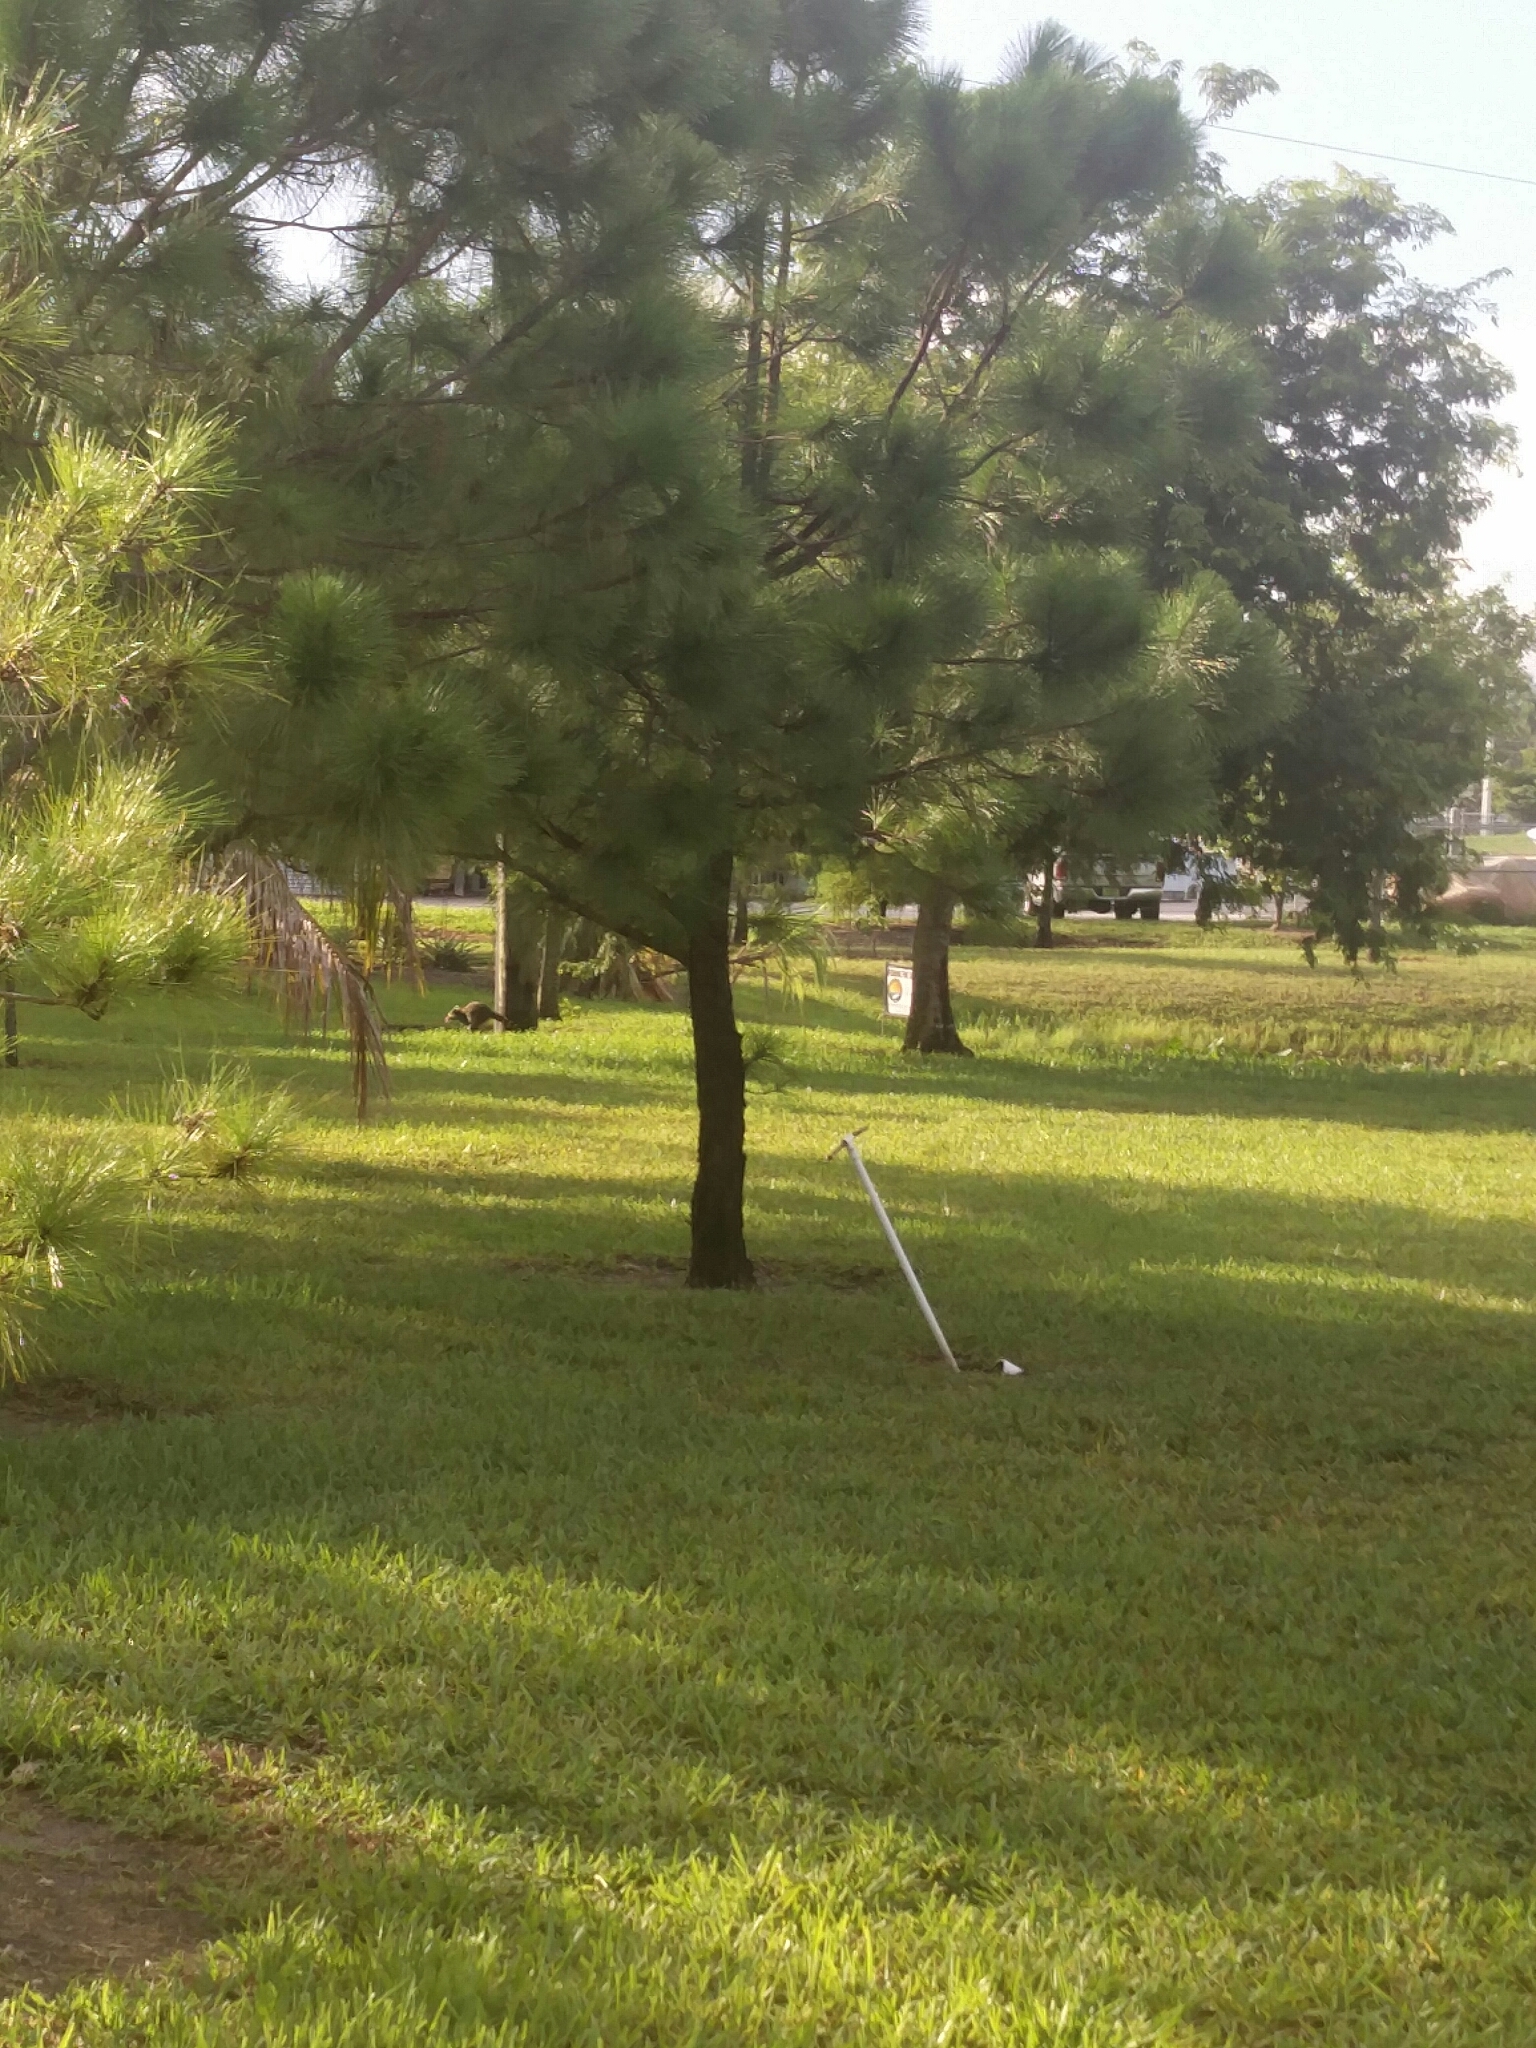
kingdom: Animalia
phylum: Chordata
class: Mammalia
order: Carnivora
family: Procyonidae
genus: Procyon
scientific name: Procyon lotor
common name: Raccoon
